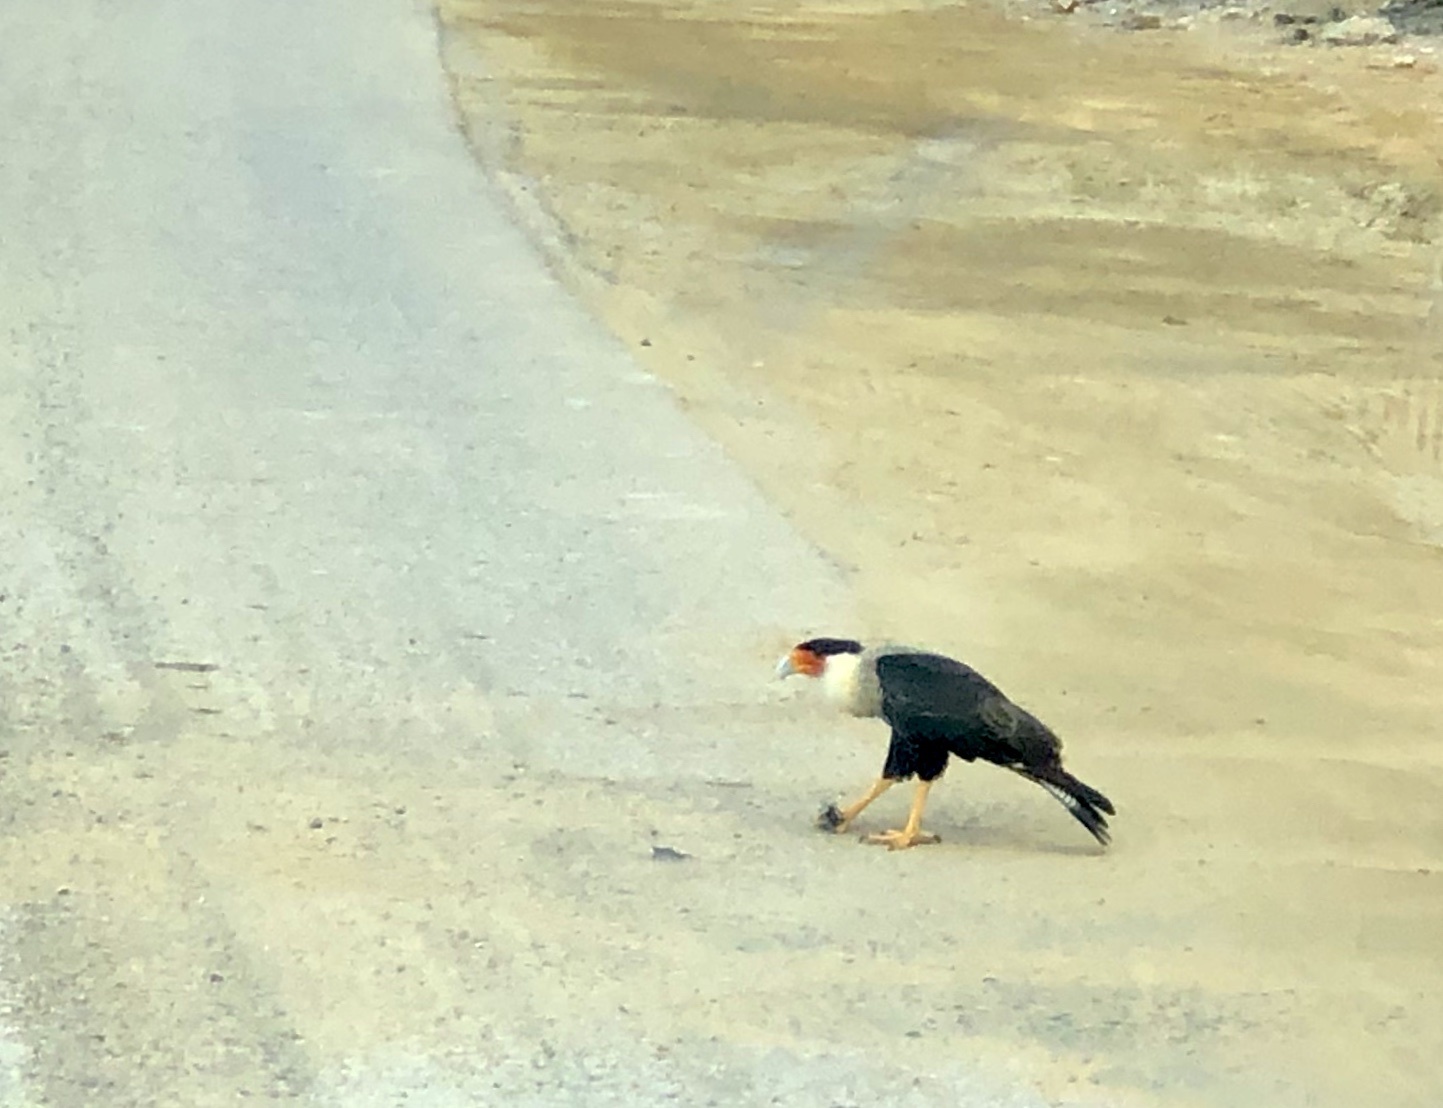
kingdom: Animalia
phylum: Chordata
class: Aves
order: Falconiformes
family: Falconidae
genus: Caracara
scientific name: Caracara plancus
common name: Southern caracara
